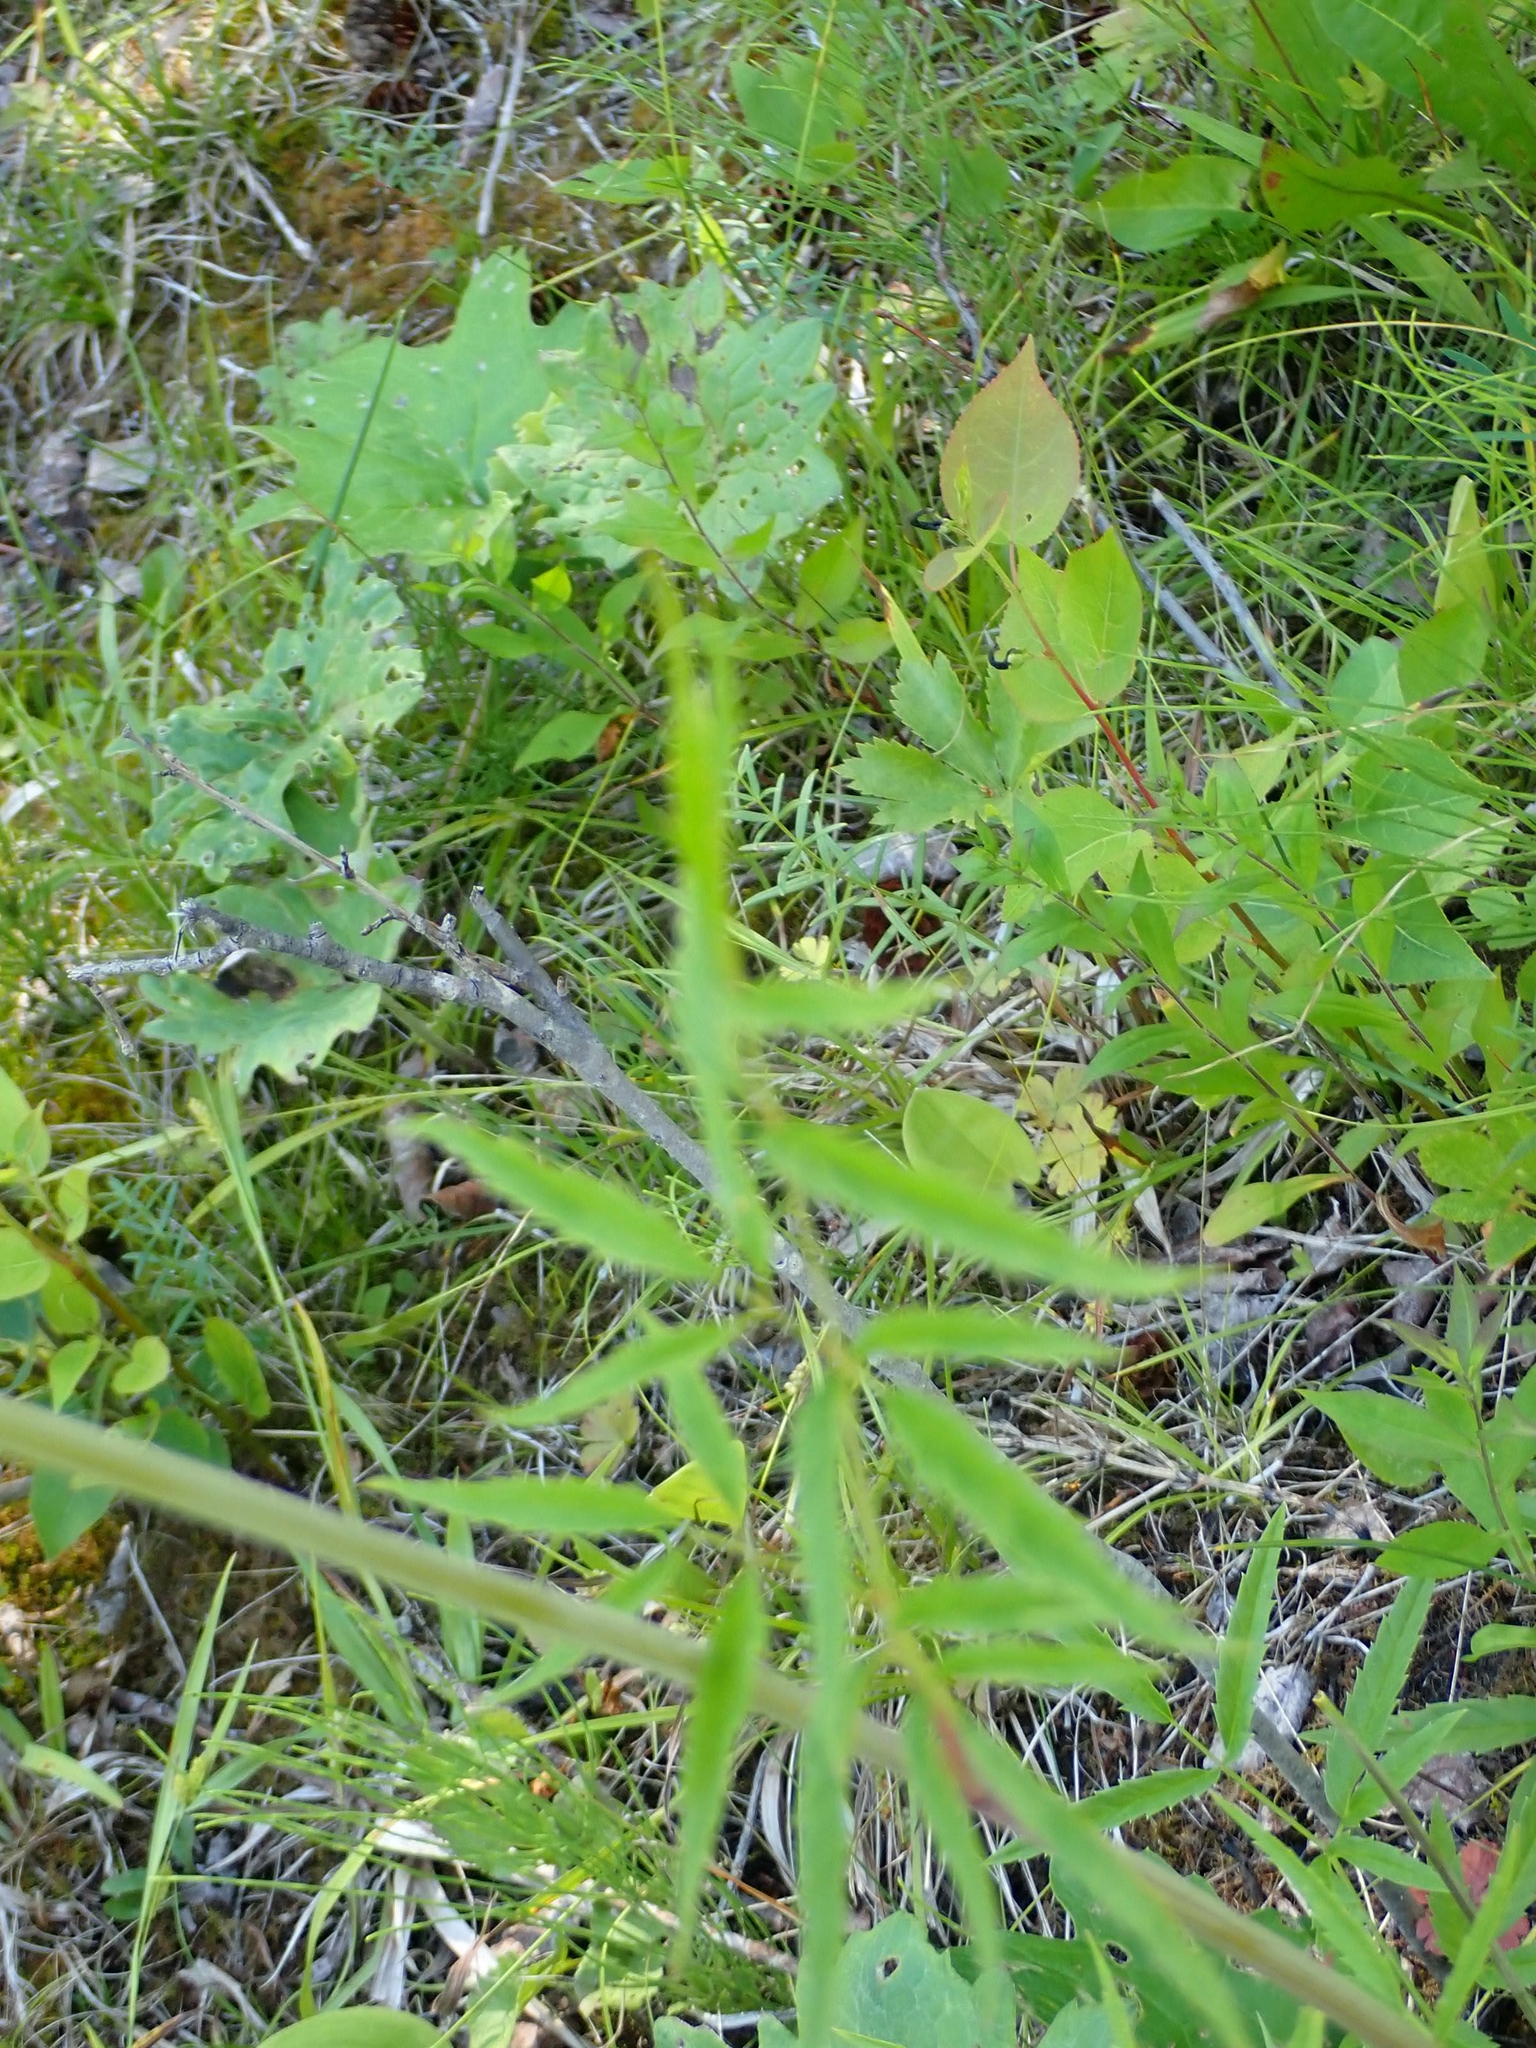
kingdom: Plantae
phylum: Tracheophyta
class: Magnoliopsida
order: Apiales
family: Apiaceae
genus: Cicuta
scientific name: Cicuta maculata
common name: Spotted cowbane
